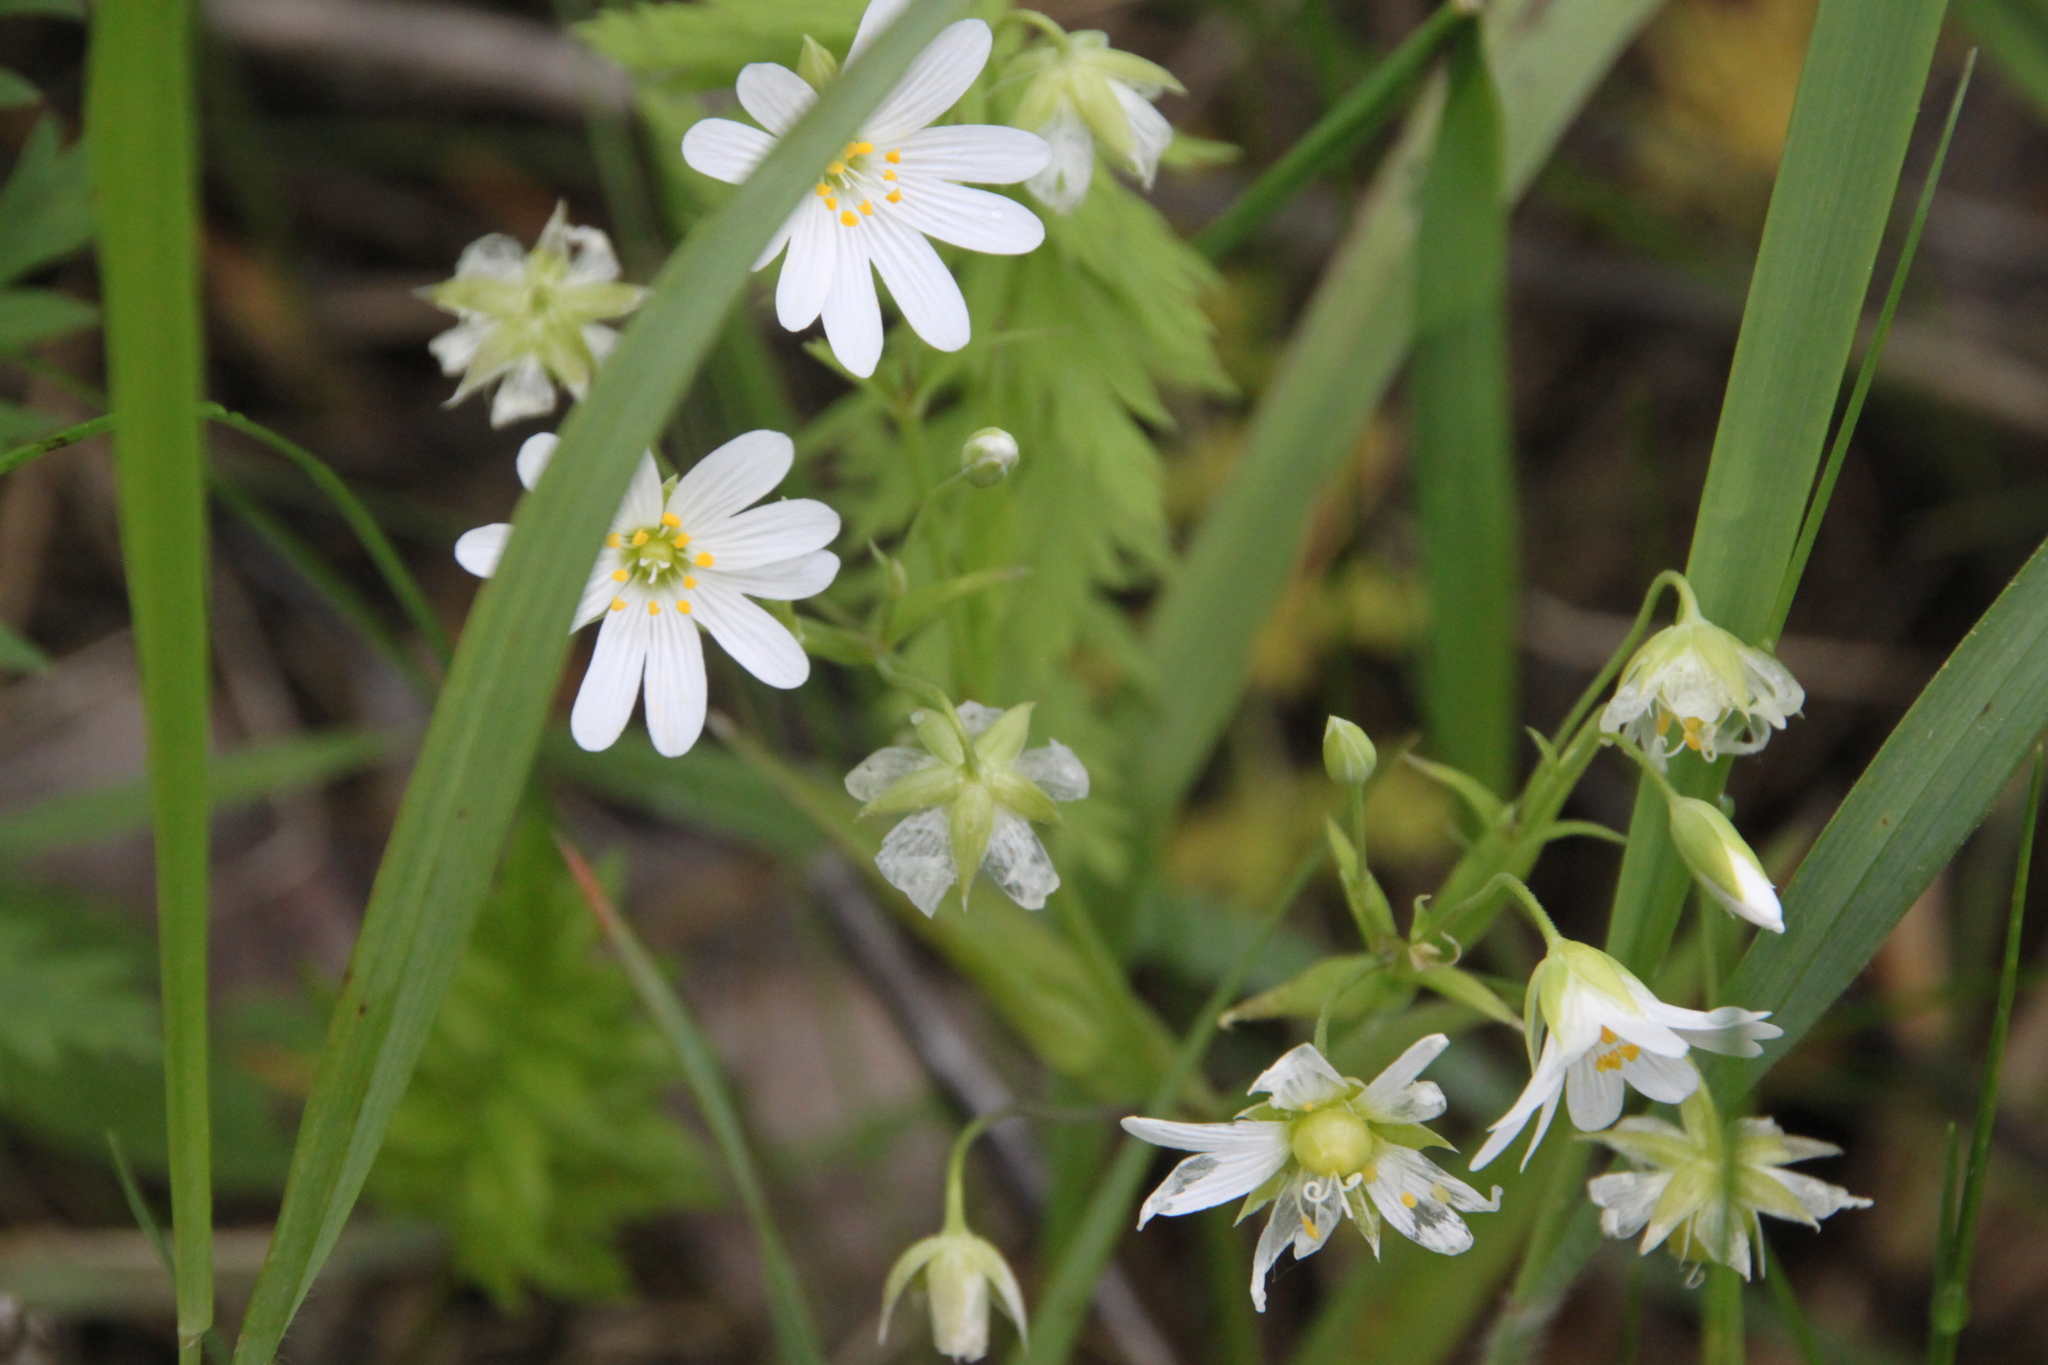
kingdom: Plantae
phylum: Tracheophyta
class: Magnoliopsida
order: Caryophyllales
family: Caryophyllaceae
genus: Rabelera
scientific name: Rabelera holostea
